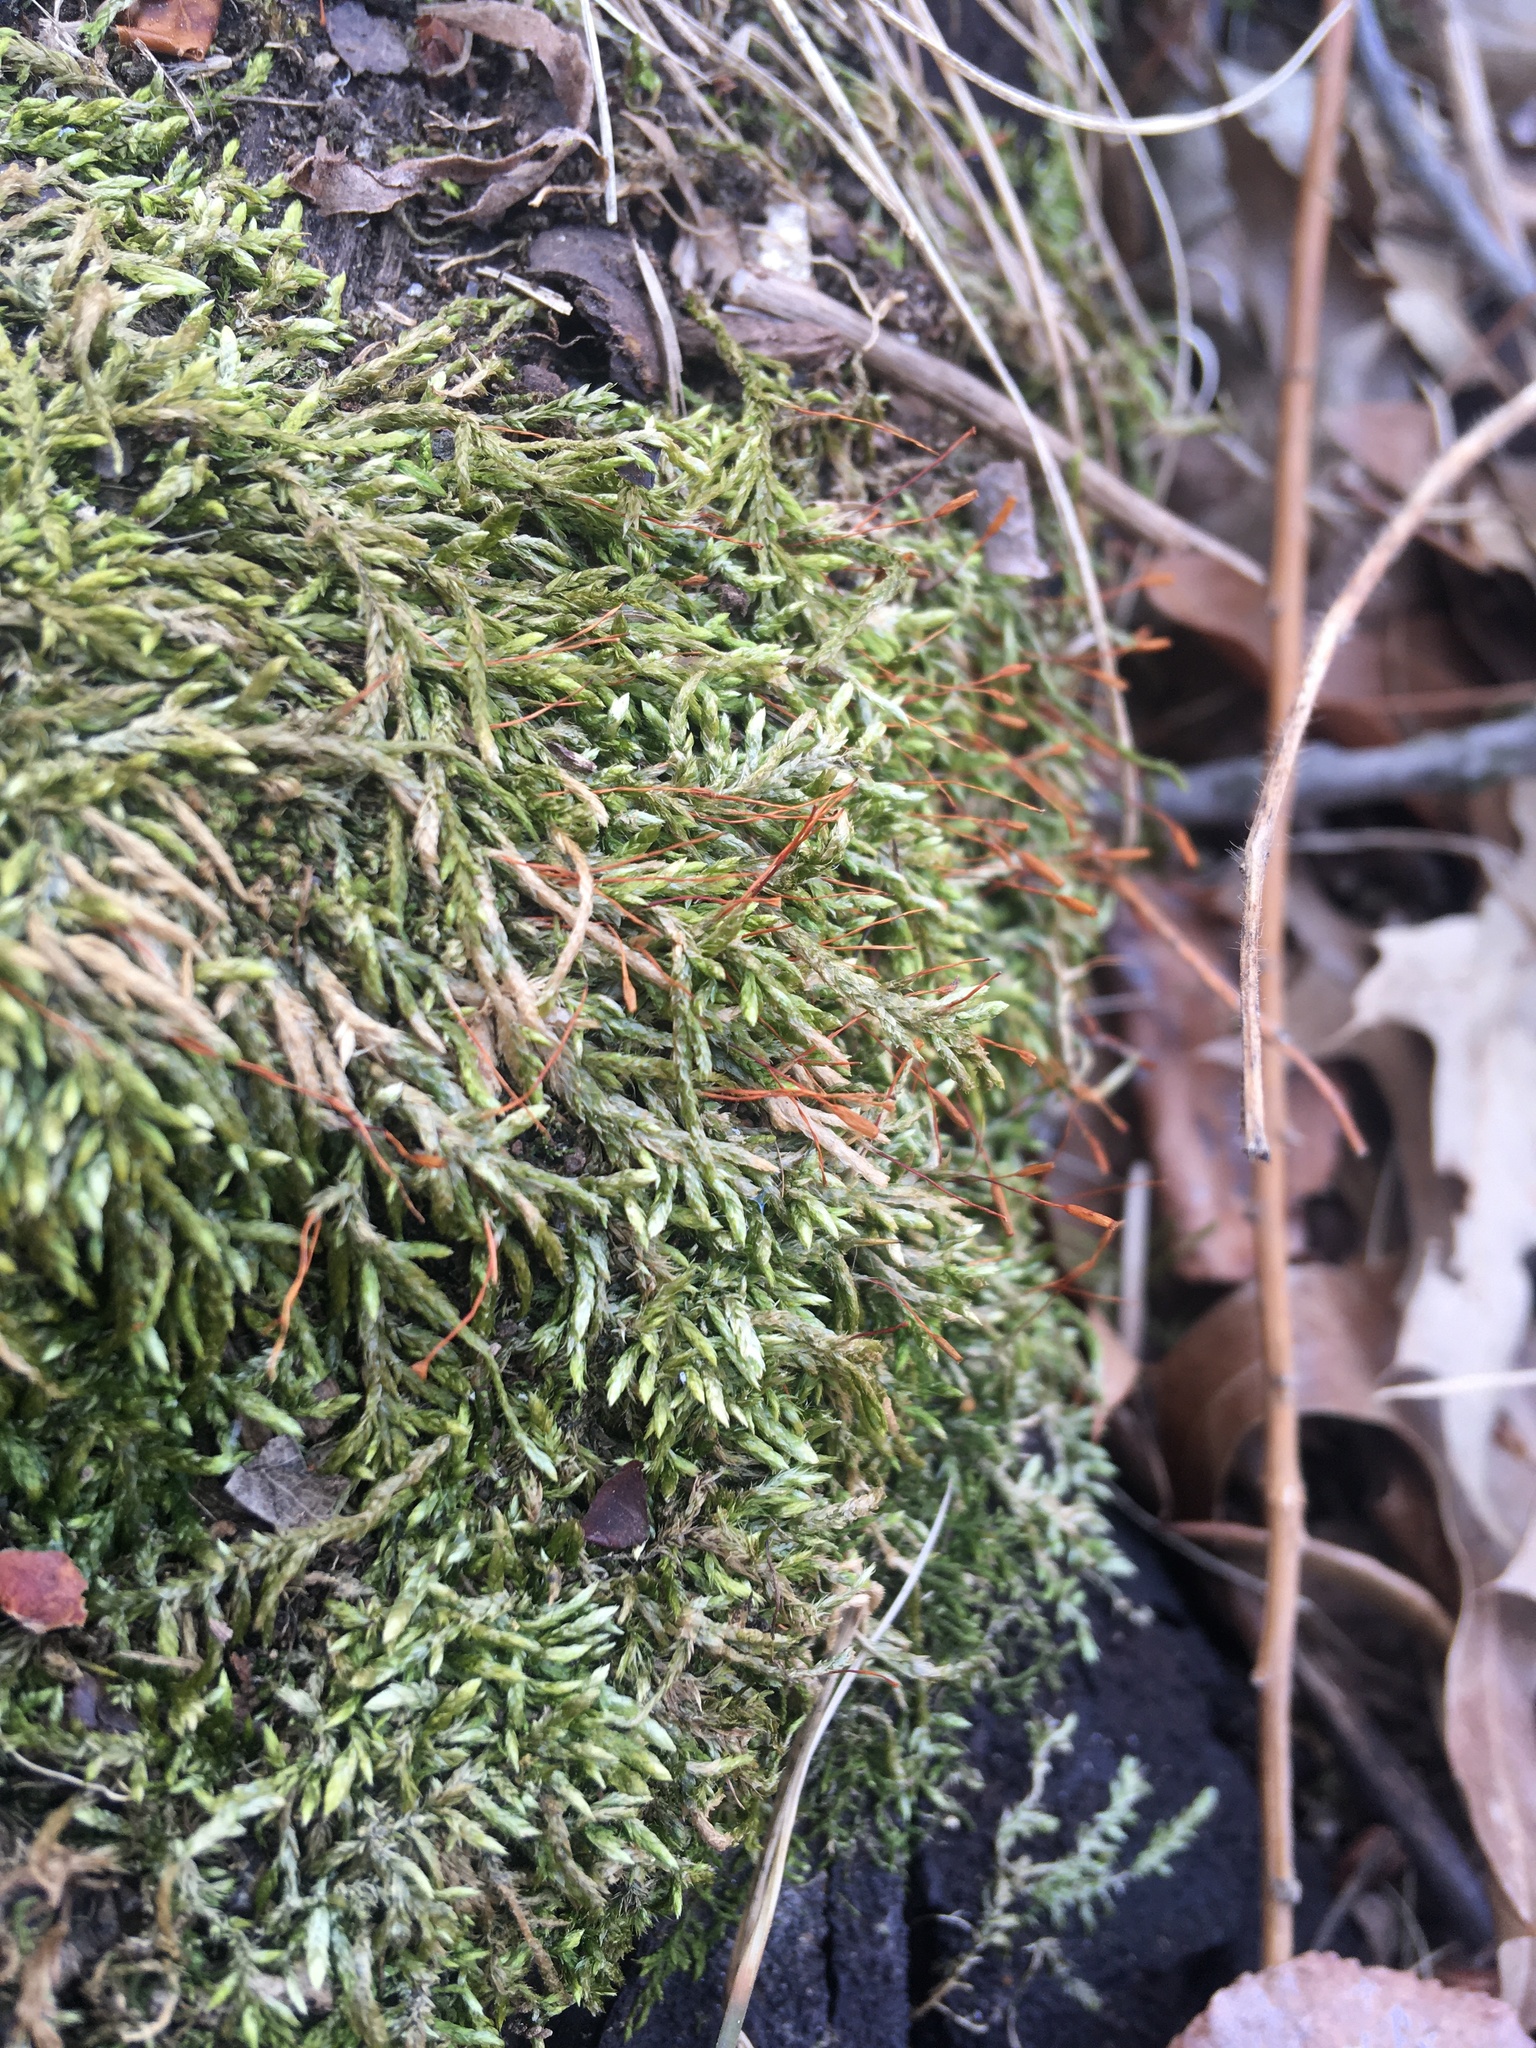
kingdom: Plantae
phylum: Bryophyta
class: Bryopsida
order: Hypnales
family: Entodontaceae
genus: Entodon
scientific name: Entodon seductrix
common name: Round-stemmed entodon moss
